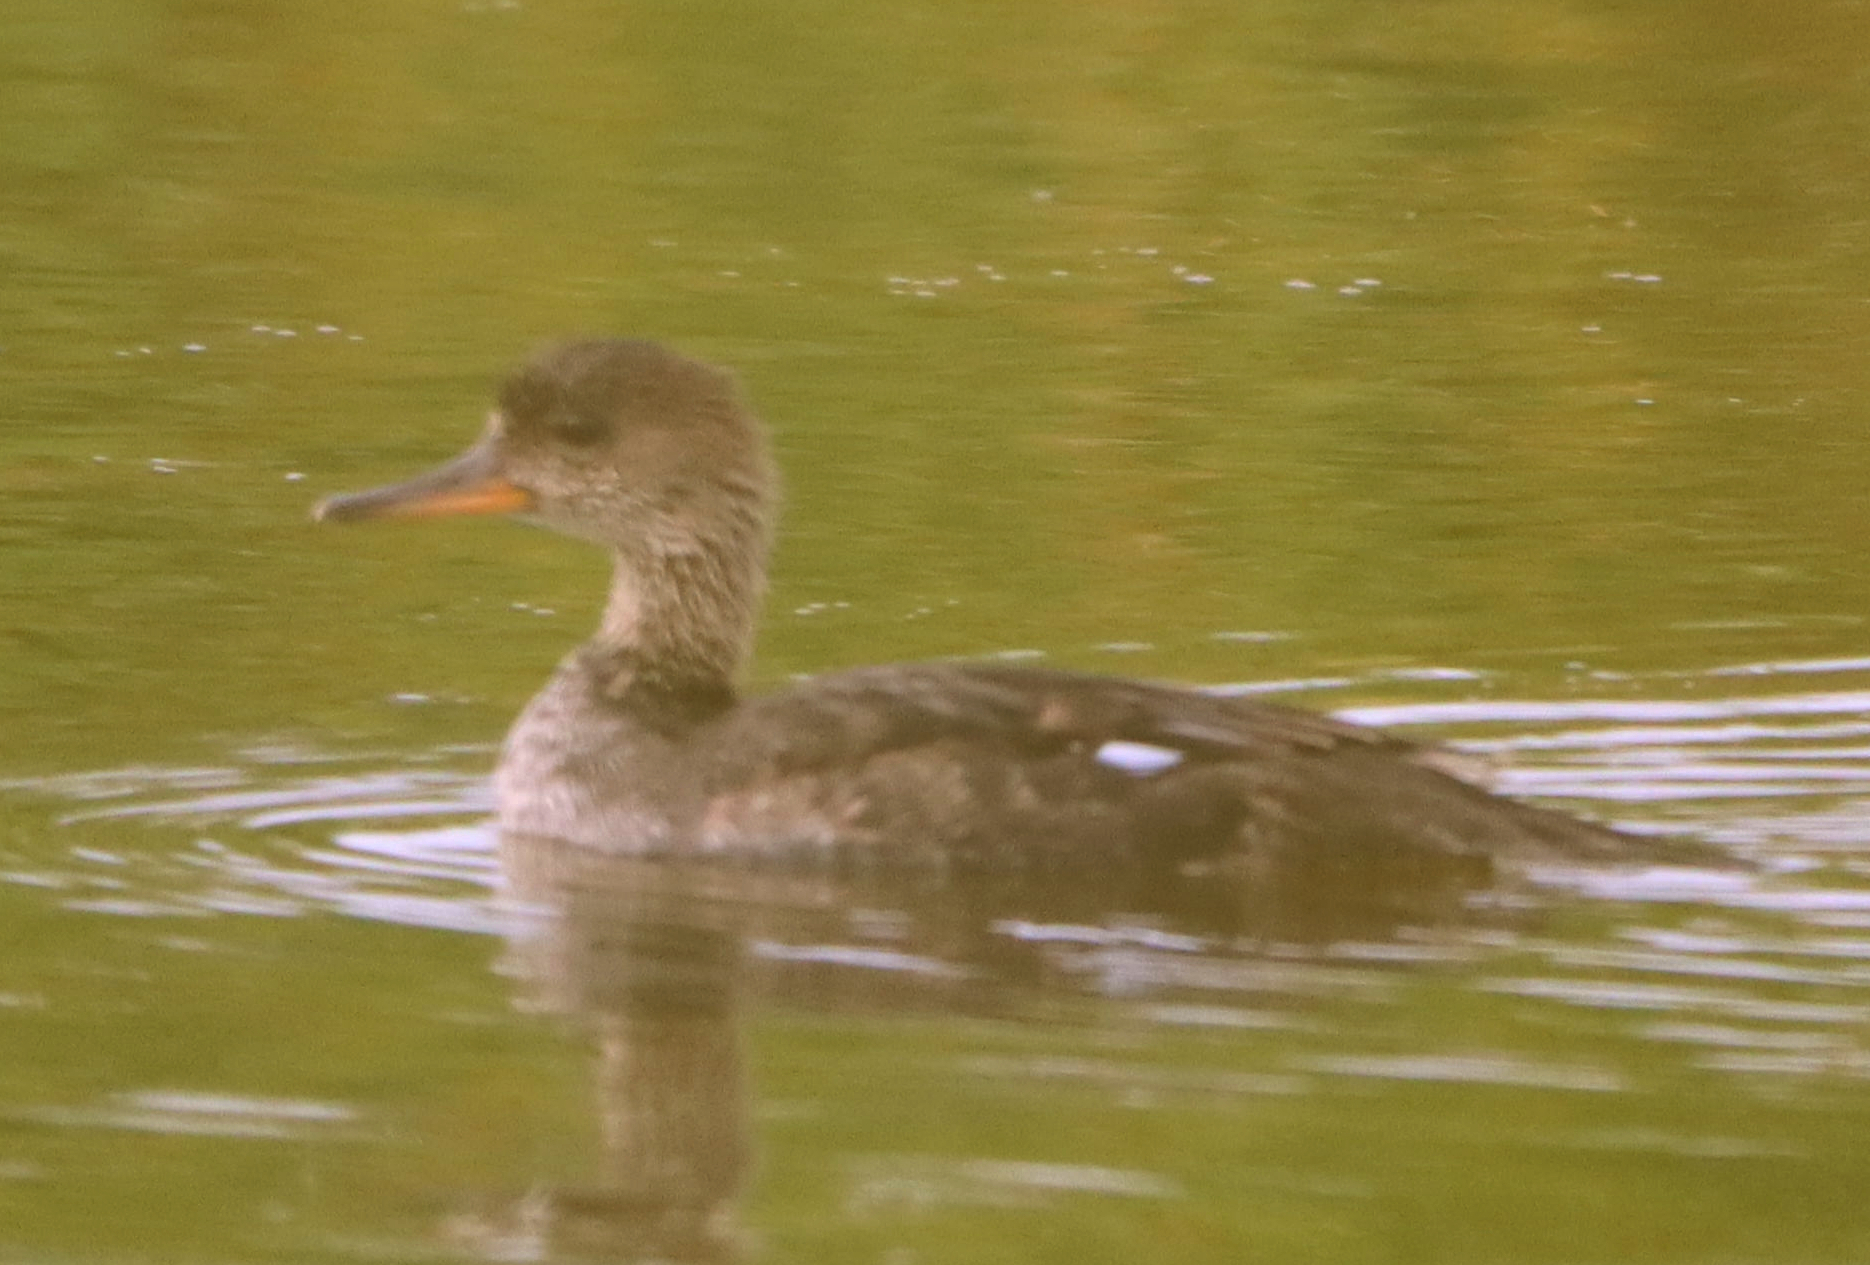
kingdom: Animalia
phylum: Chordata
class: Aves
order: Anseriformes
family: Anatidae
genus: Lophodytes
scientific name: Lophodytes cucullatus
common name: Hooded merganser
